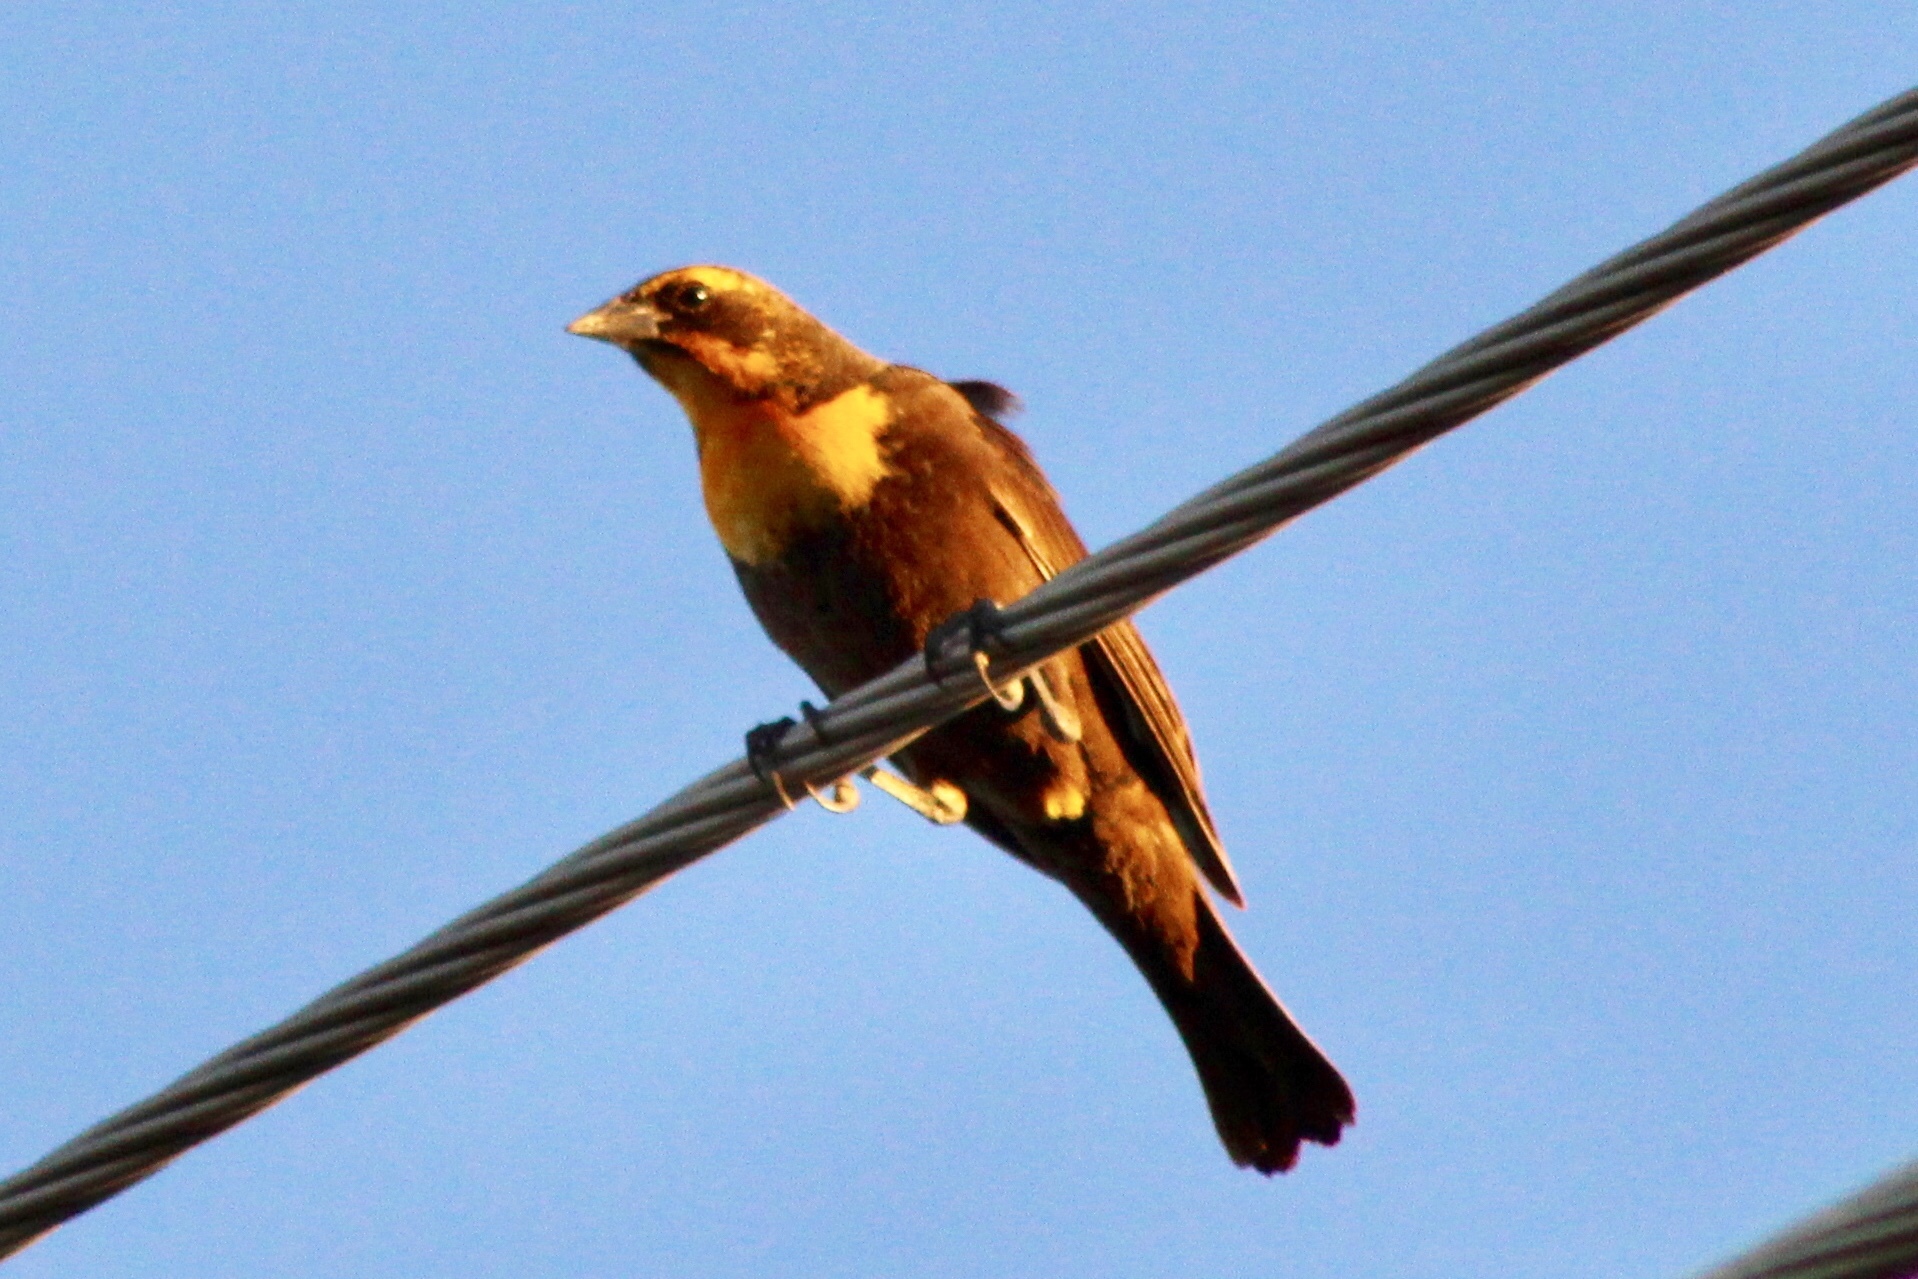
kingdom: Animalia
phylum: Chordata
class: Aves
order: Passeriformes
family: Icteridae
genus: Xanthocephalus
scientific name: Xanthocephalus xanthocephalus
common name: Yellow-headed blackbird
